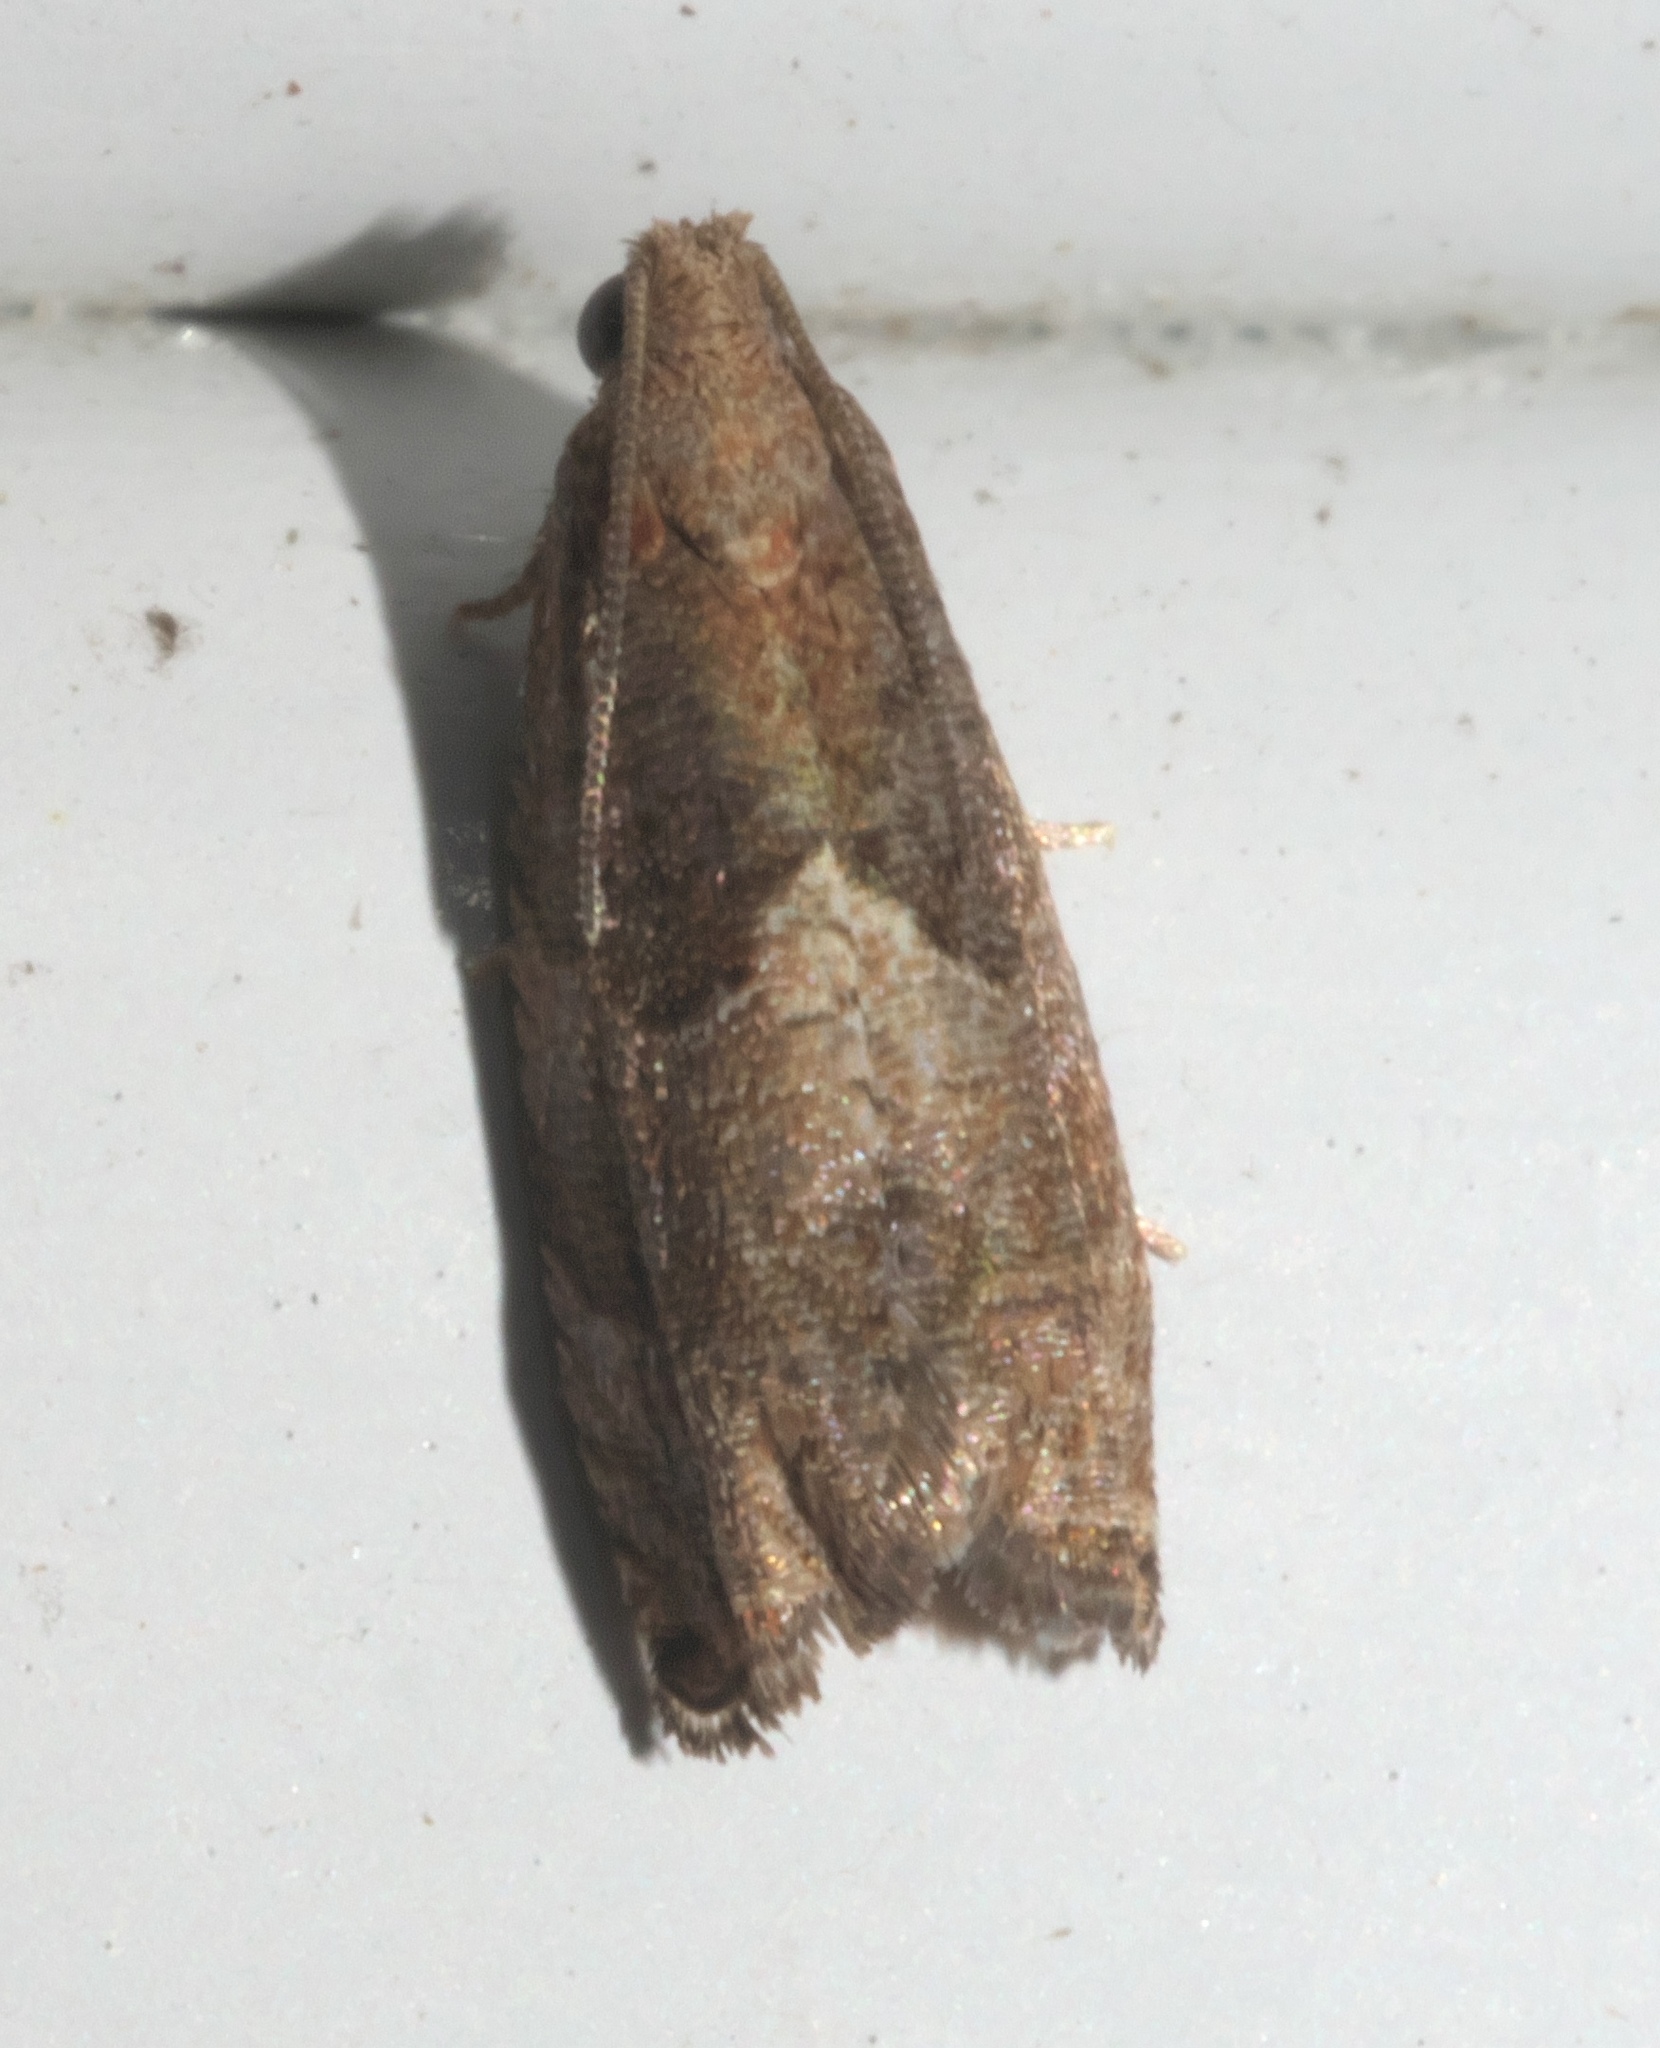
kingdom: Animalia
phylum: Arthropoda
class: Insecta
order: Lepidoptera
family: Tortricidae
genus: Gypsonoma
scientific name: Gypsonoma salicicolana
